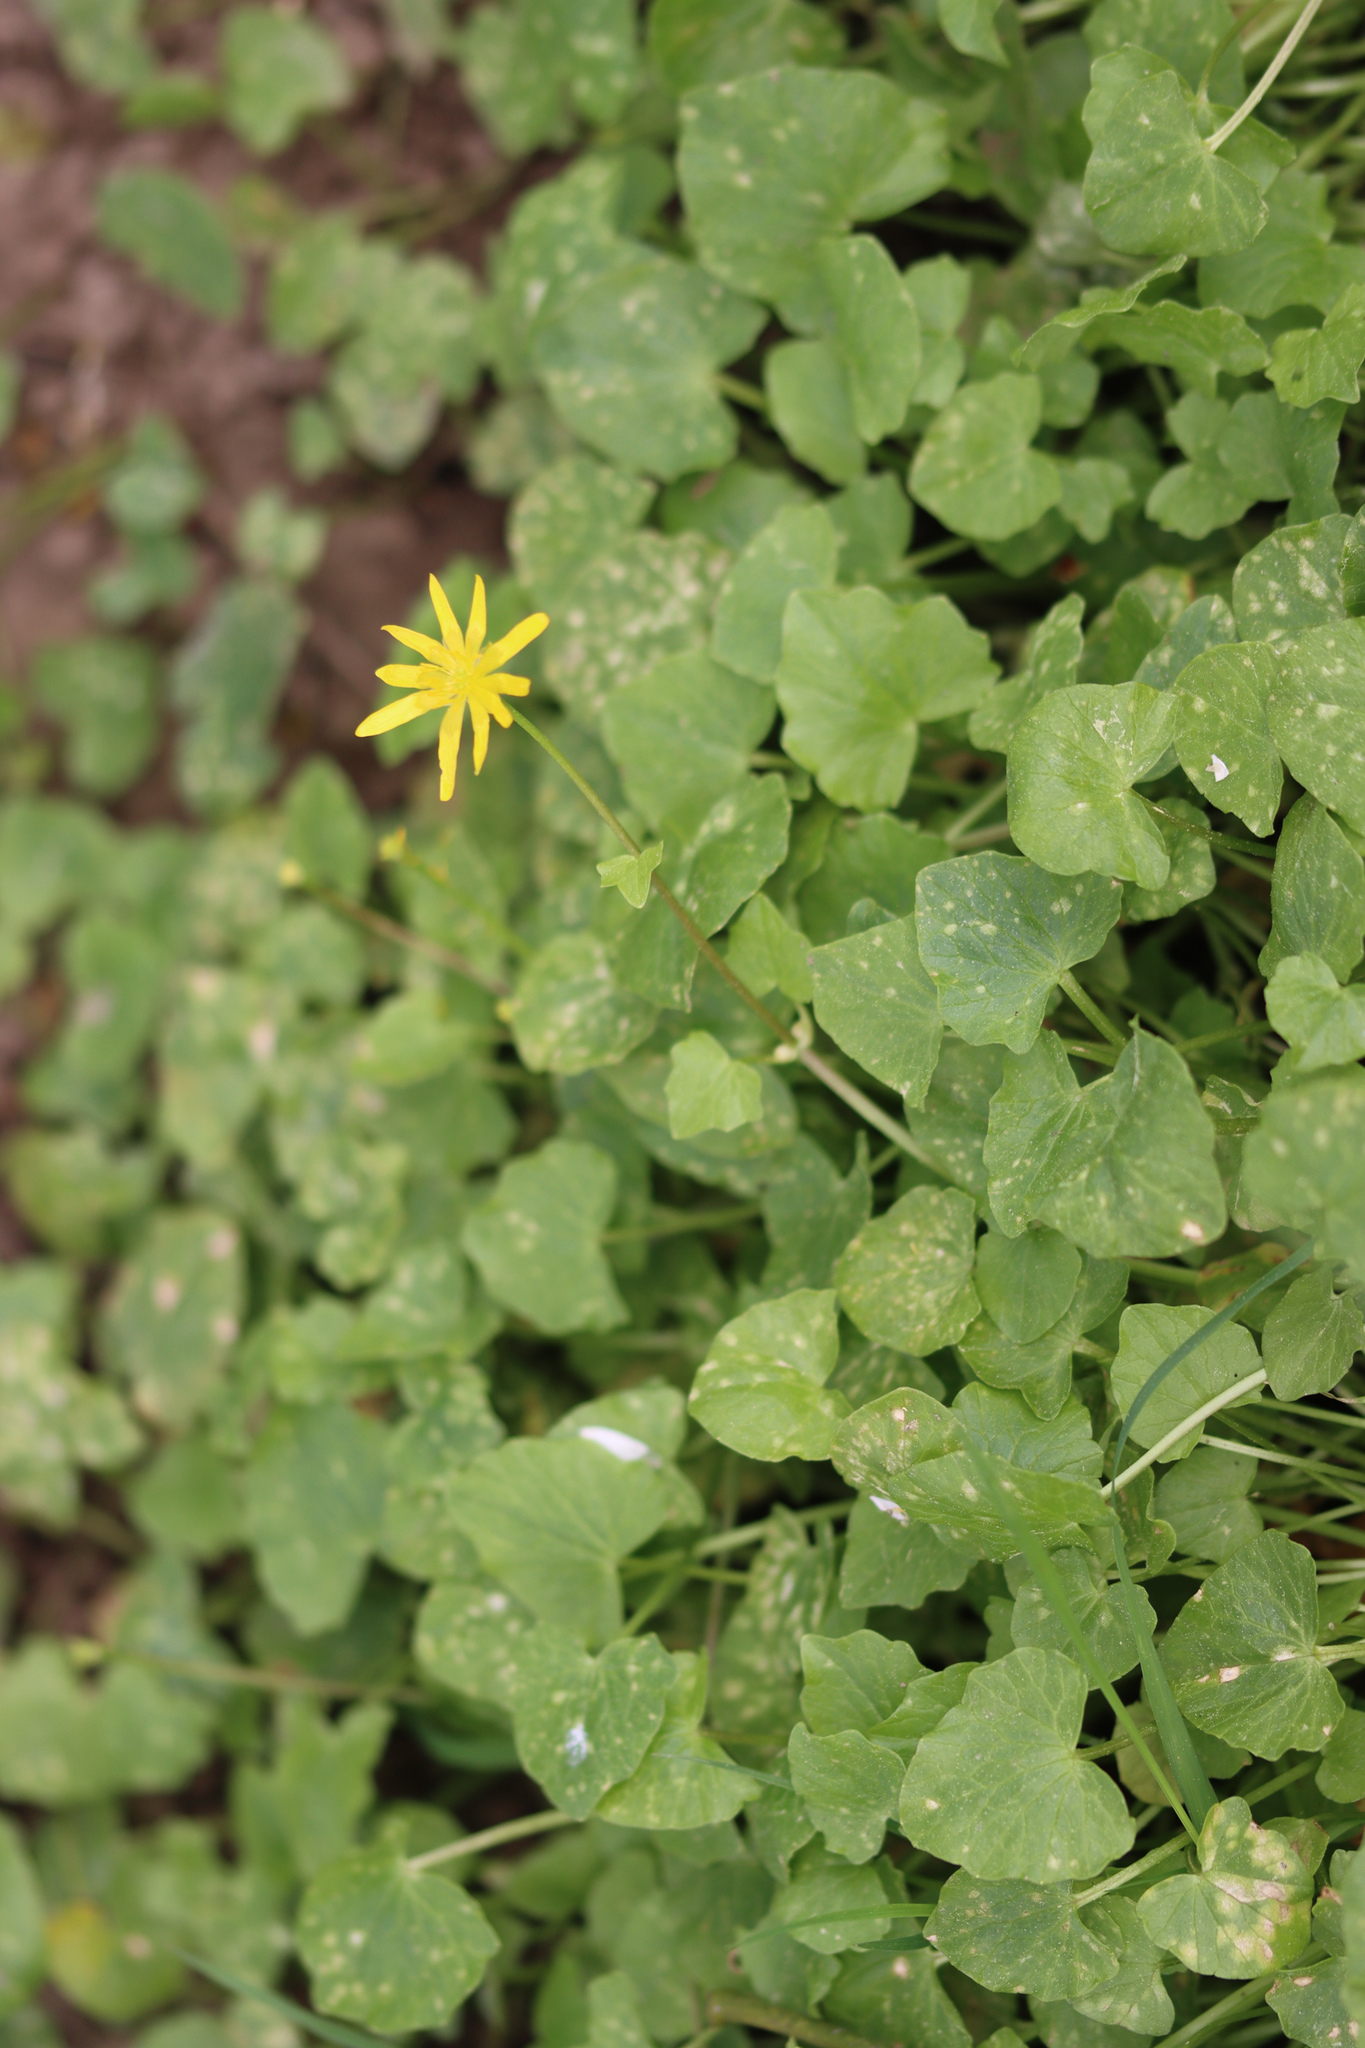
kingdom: Plantae
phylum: Tracheophyta
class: Magnoliopsida
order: Ranunculales
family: Ranunculaceae
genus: Ficaria
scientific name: Ficaria verna
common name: Lesser celandine
